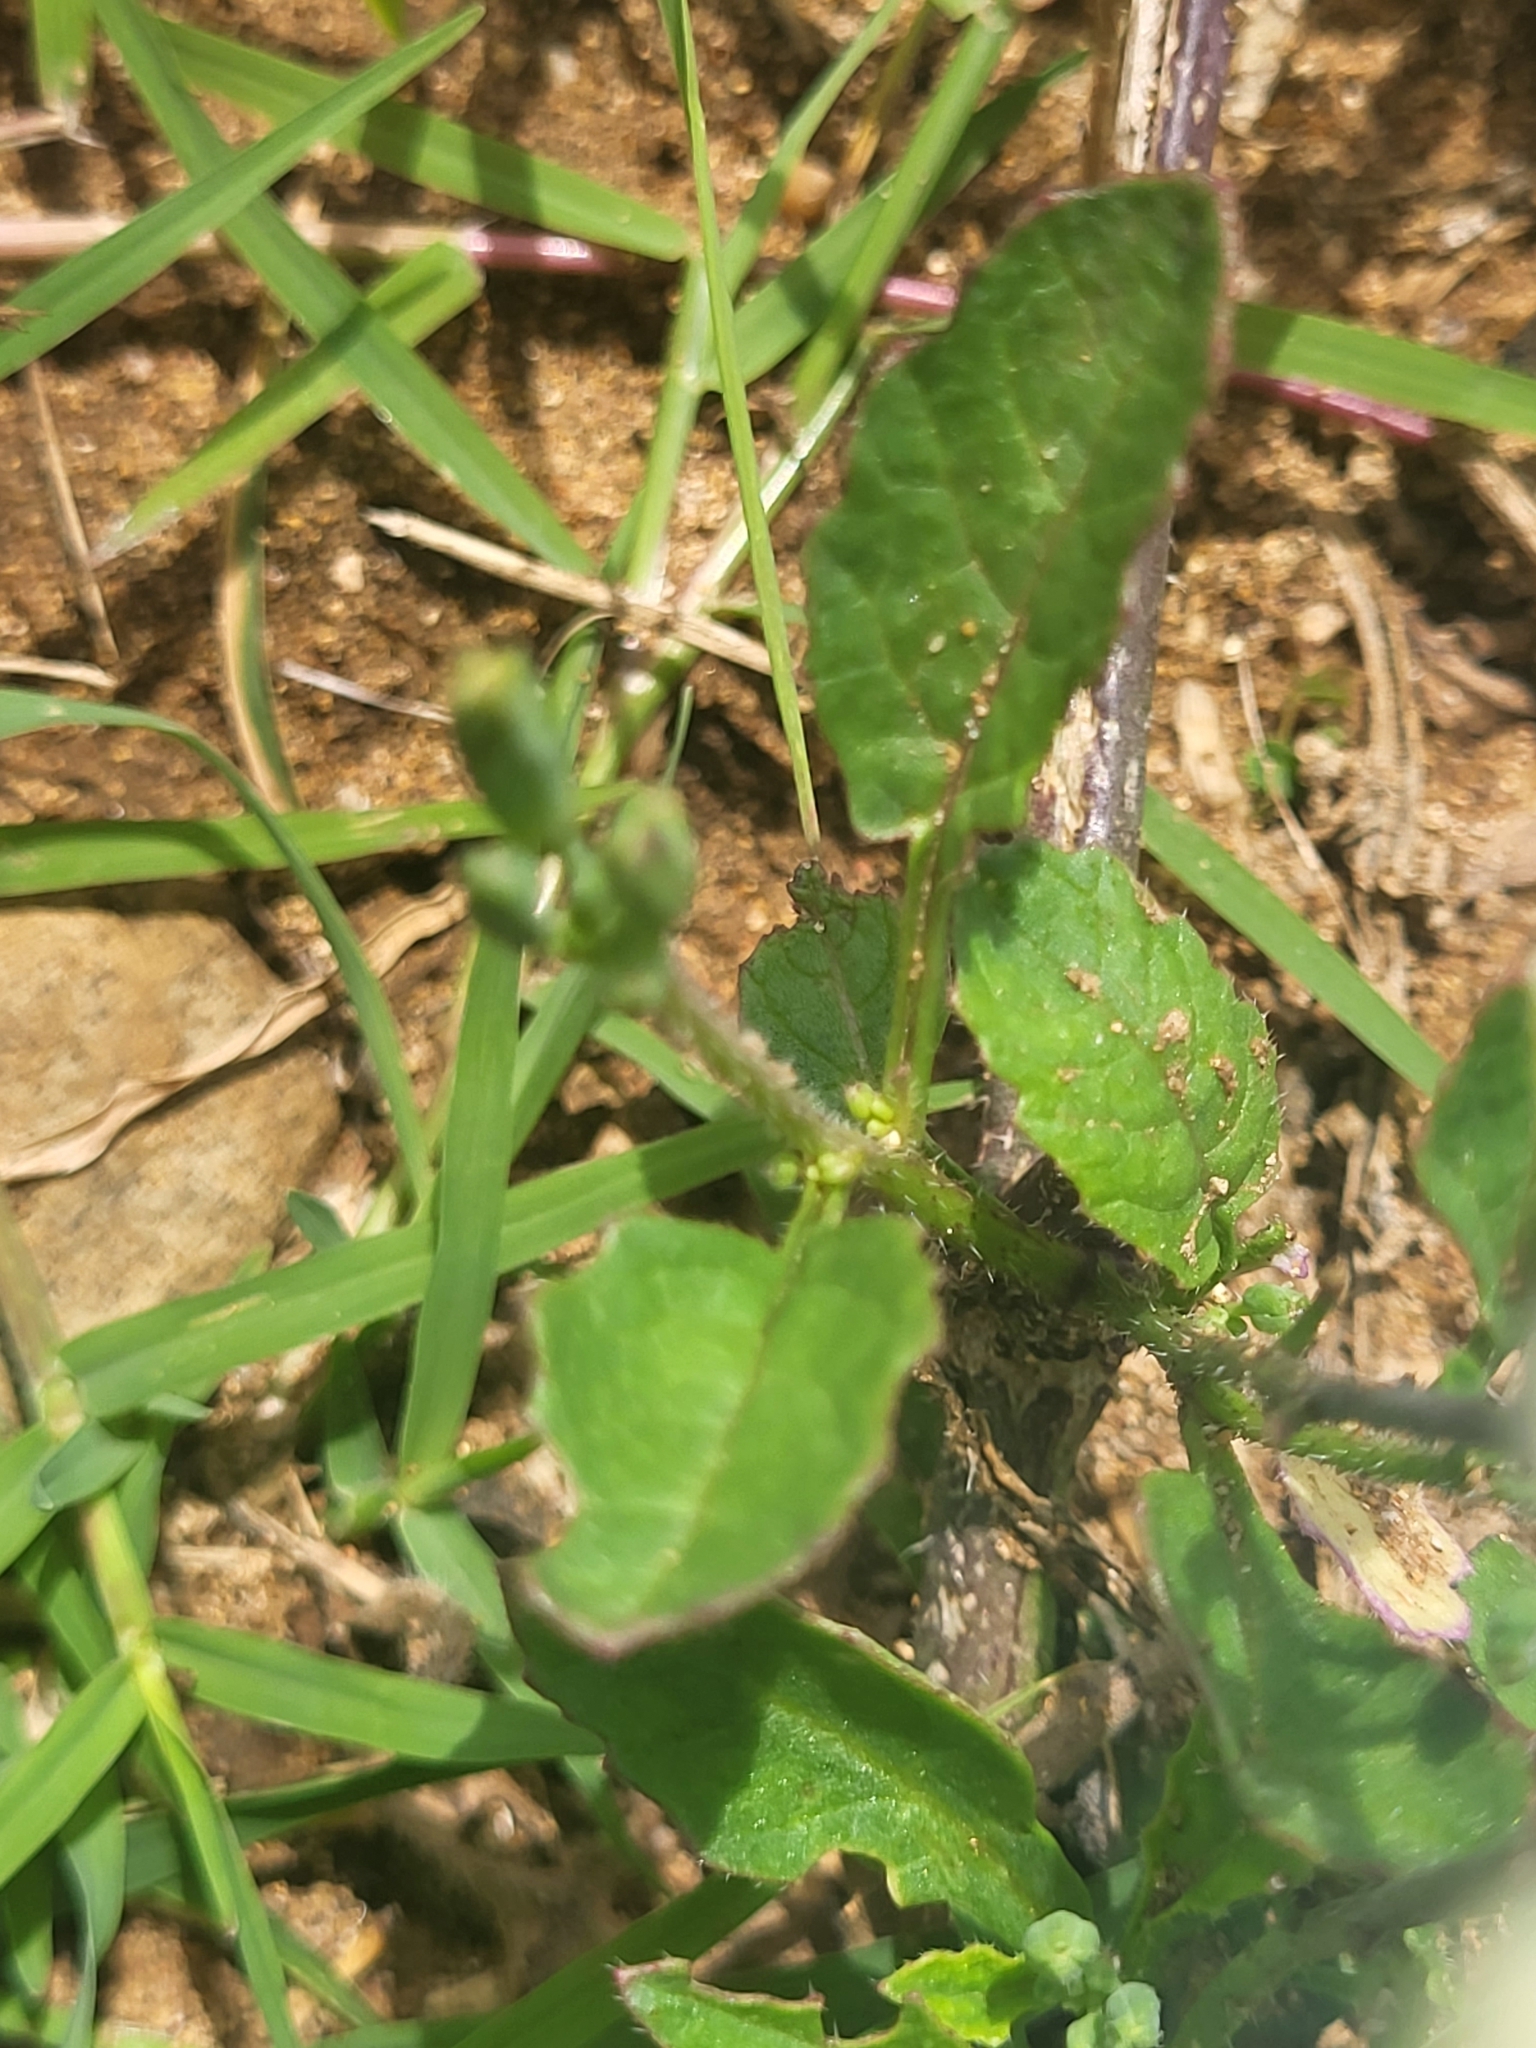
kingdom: Plantae
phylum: Tracheophyta
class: Magnoliopsida
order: Brassicales
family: Brassicaceae
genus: Raphanus
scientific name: Raphanus raphanistrum
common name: Wild radish
